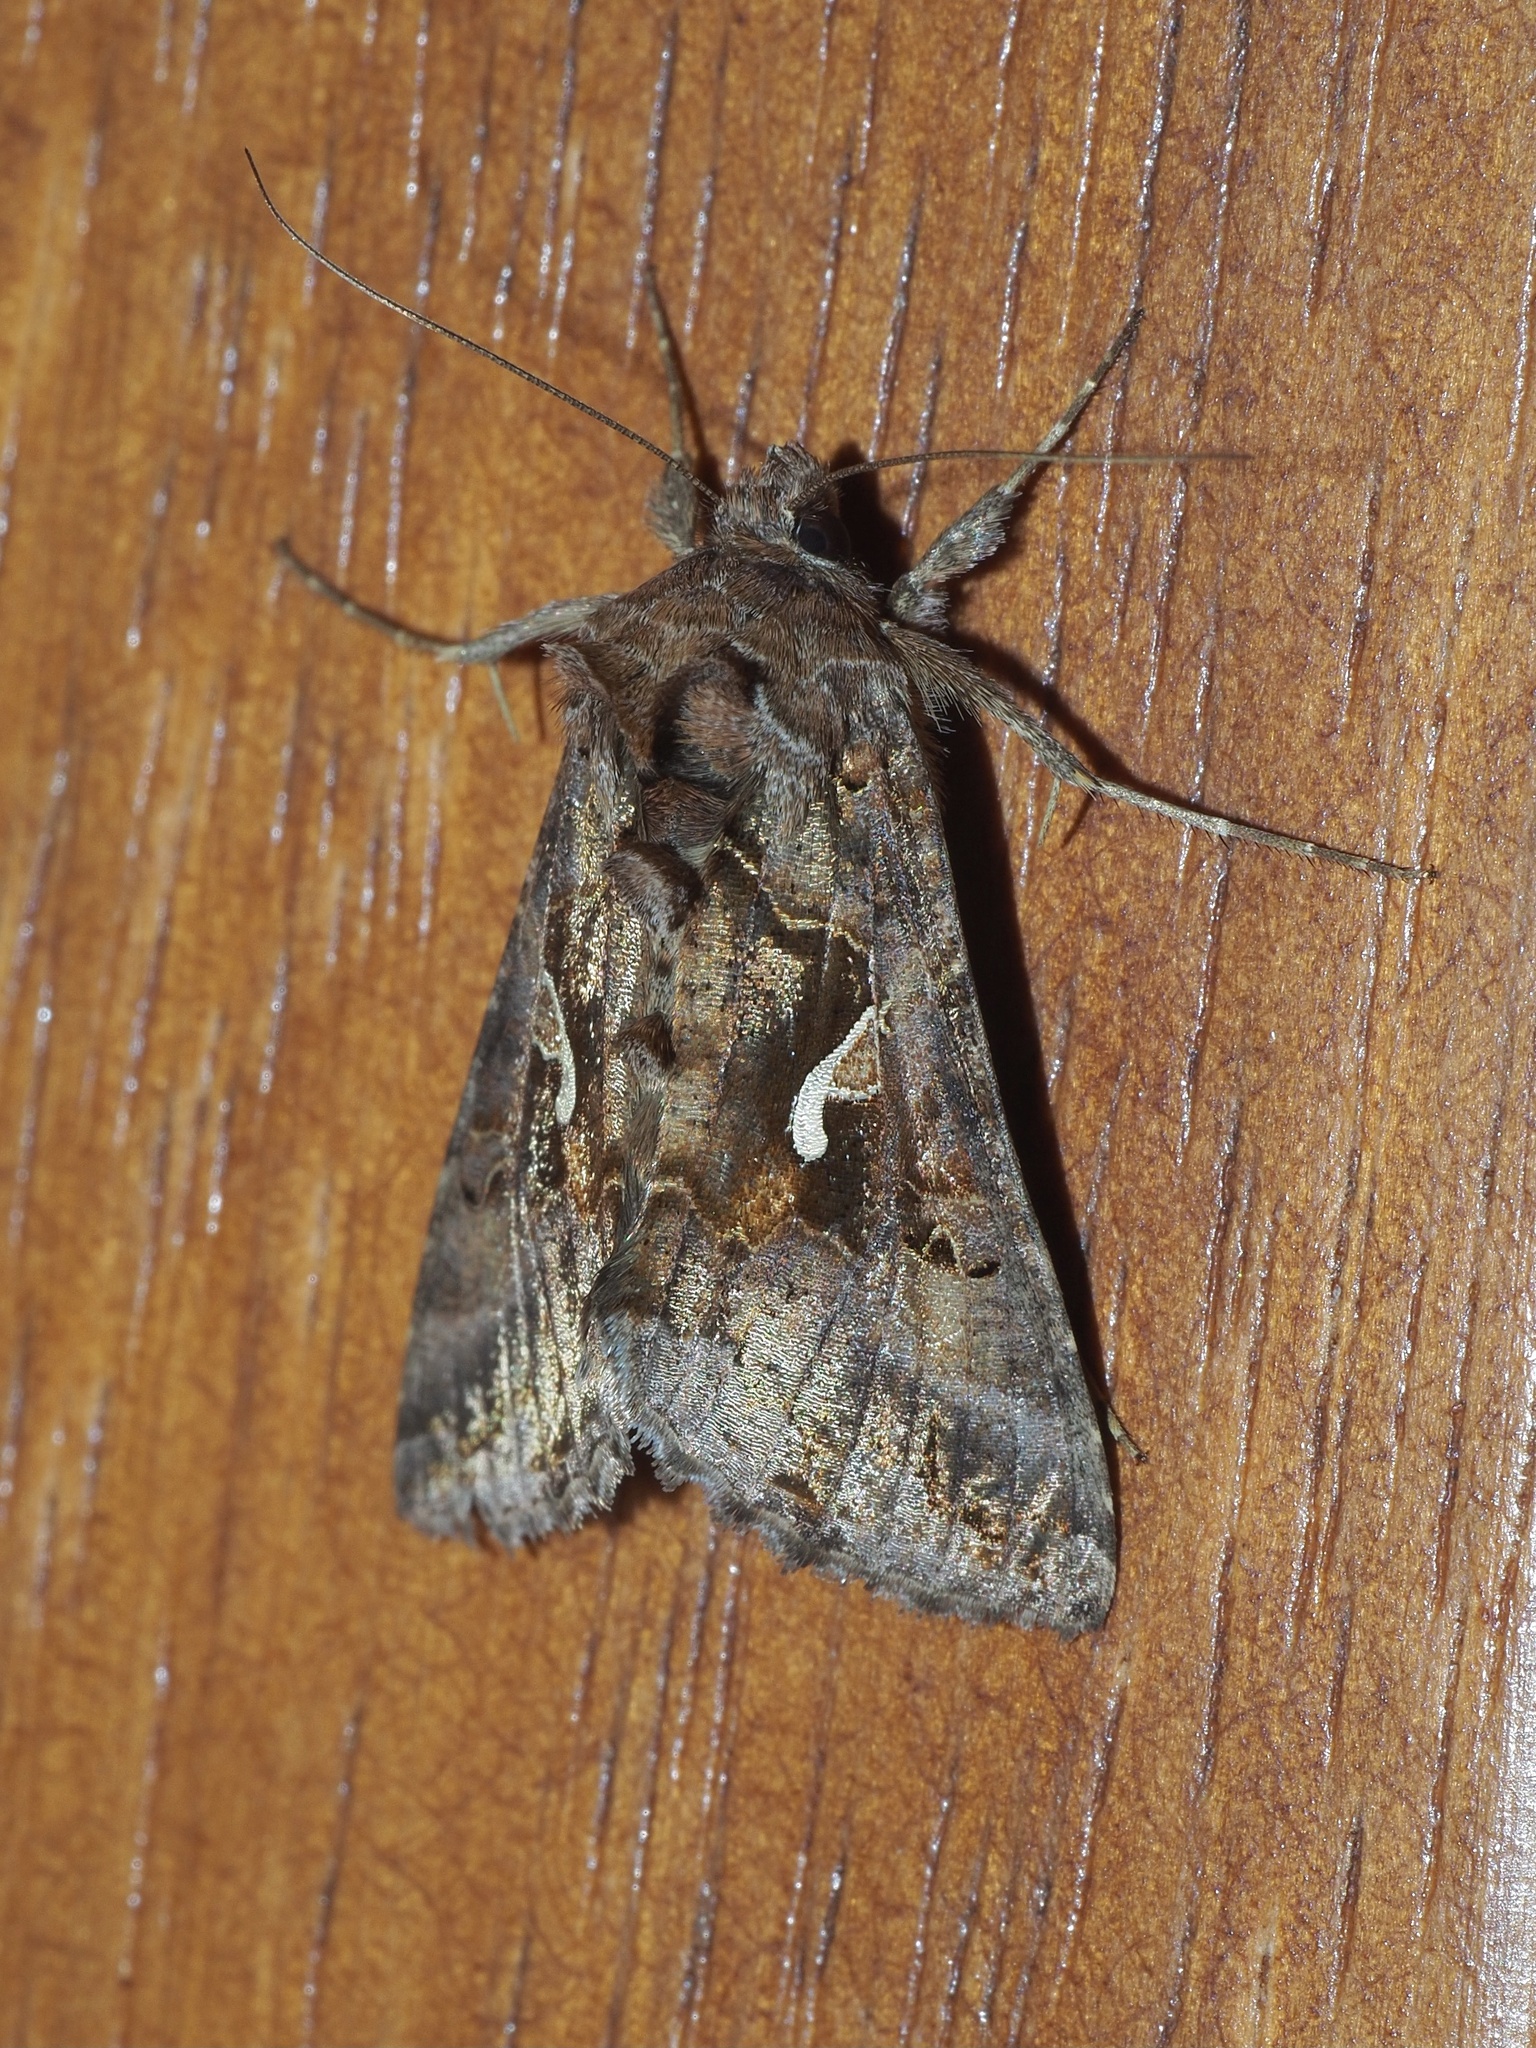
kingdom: Animalia
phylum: Arthropoda
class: Insecta
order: Lepidoptera
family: Noctuidae
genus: Autographa
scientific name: Autographa gamma
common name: Silver y
